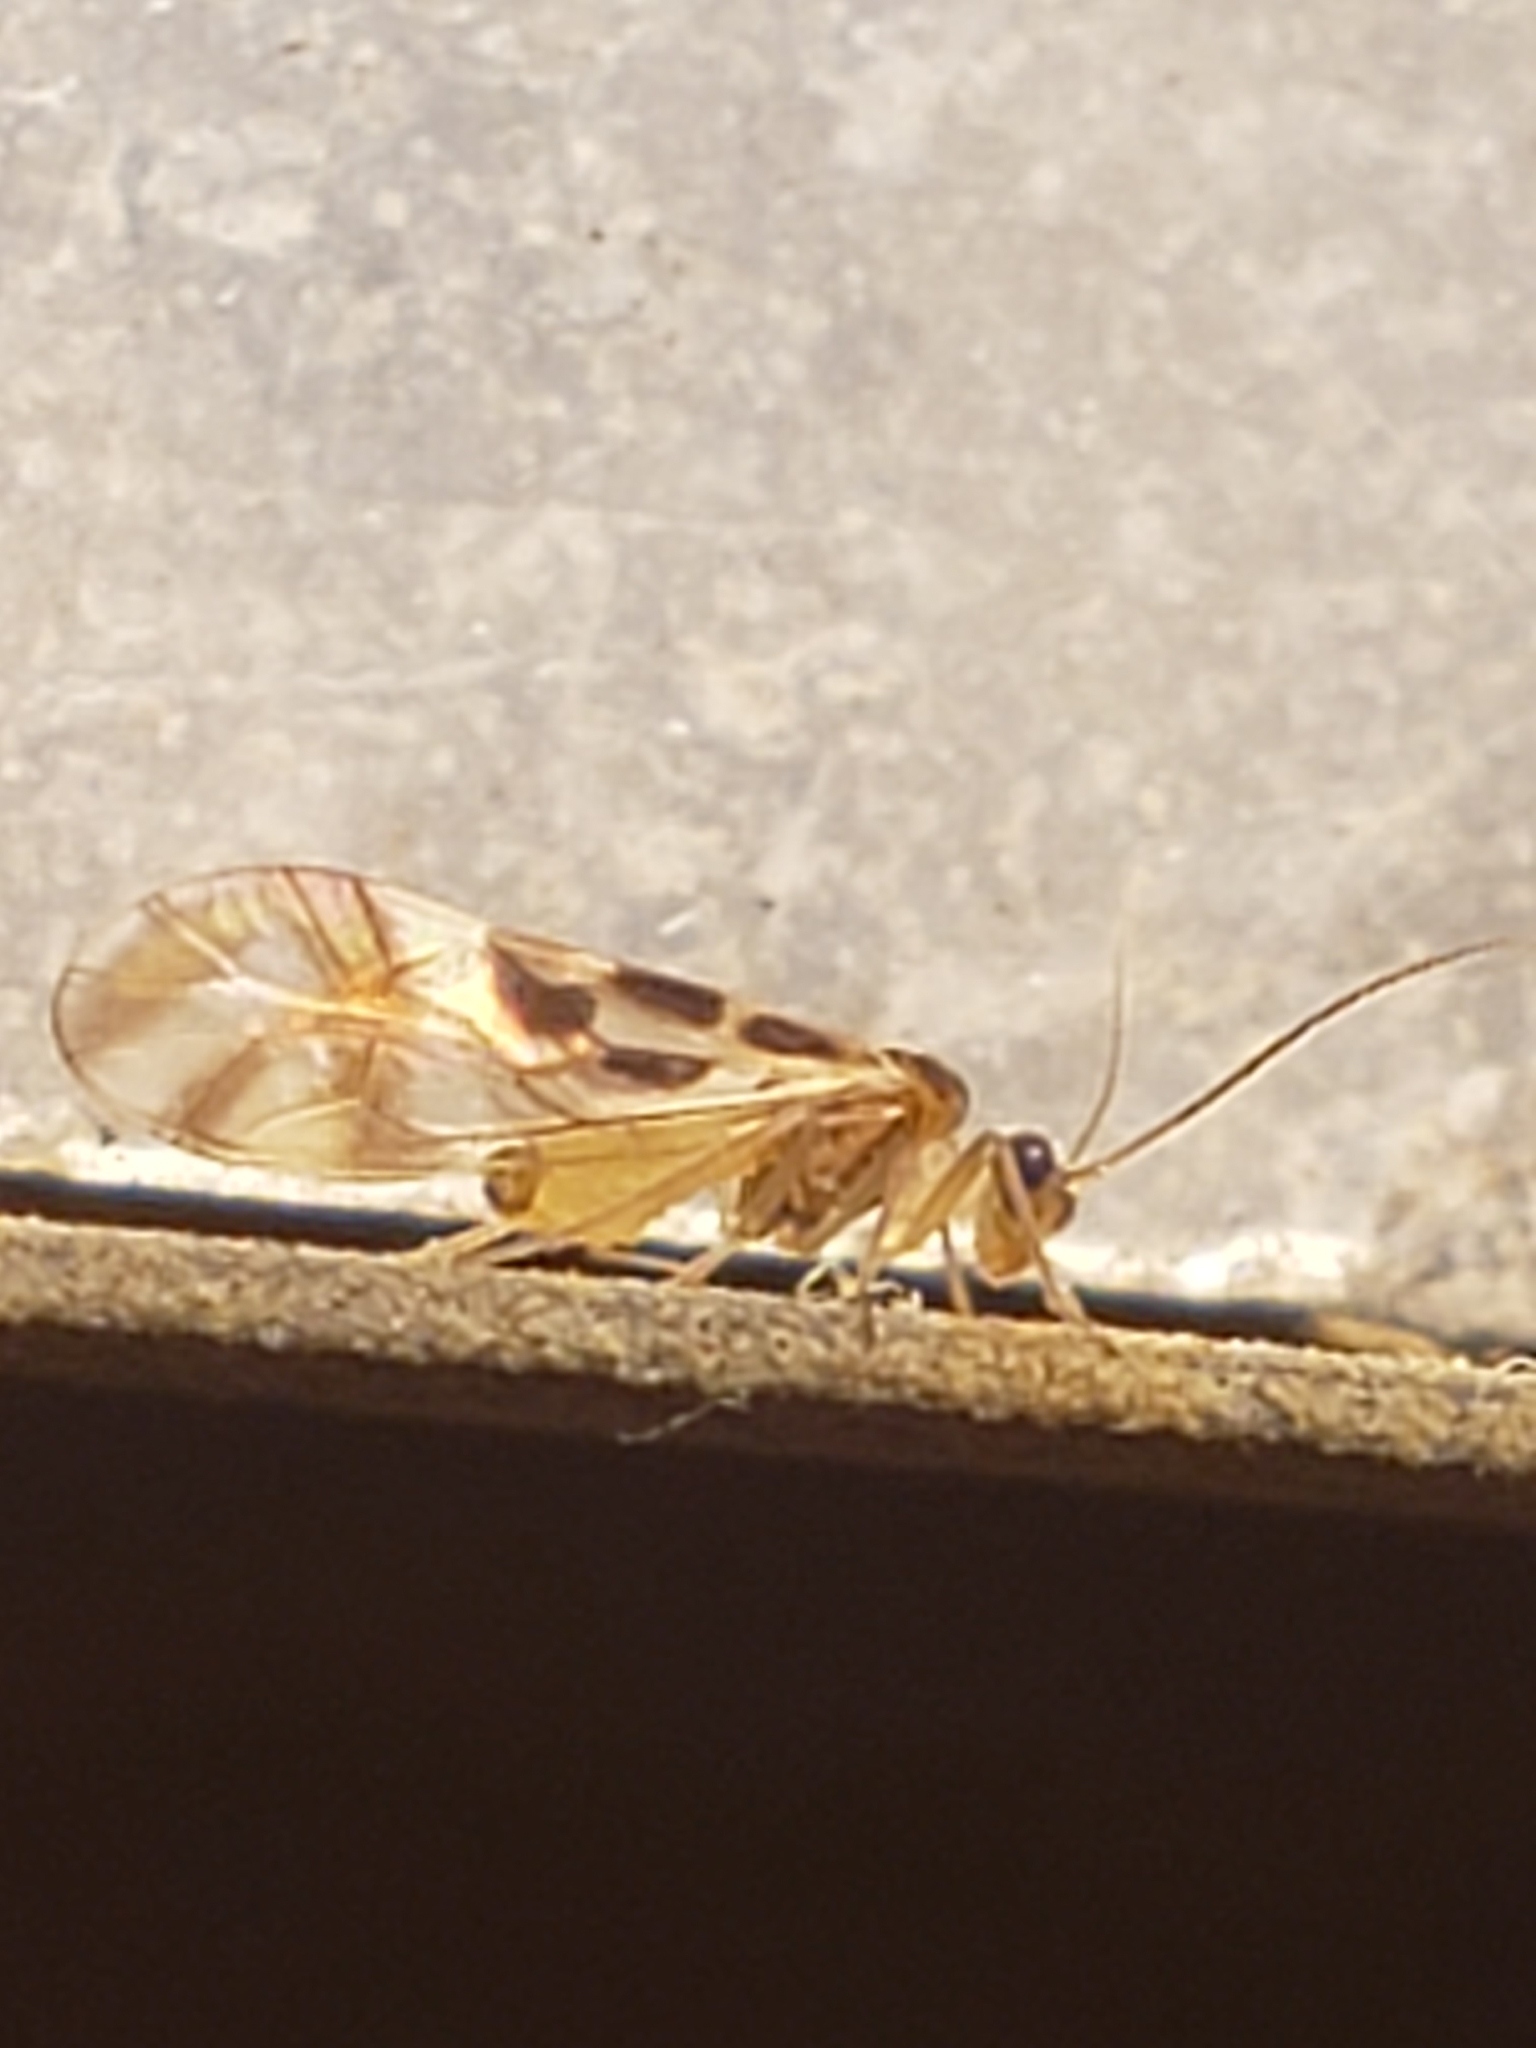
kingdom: Animalia
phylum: Arthropoda
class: Insecta
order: Psocodea
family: Stenopsocidae
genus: Graphopsocus
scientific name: Graphopsocus cruciatus
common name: Lizard bark louse
